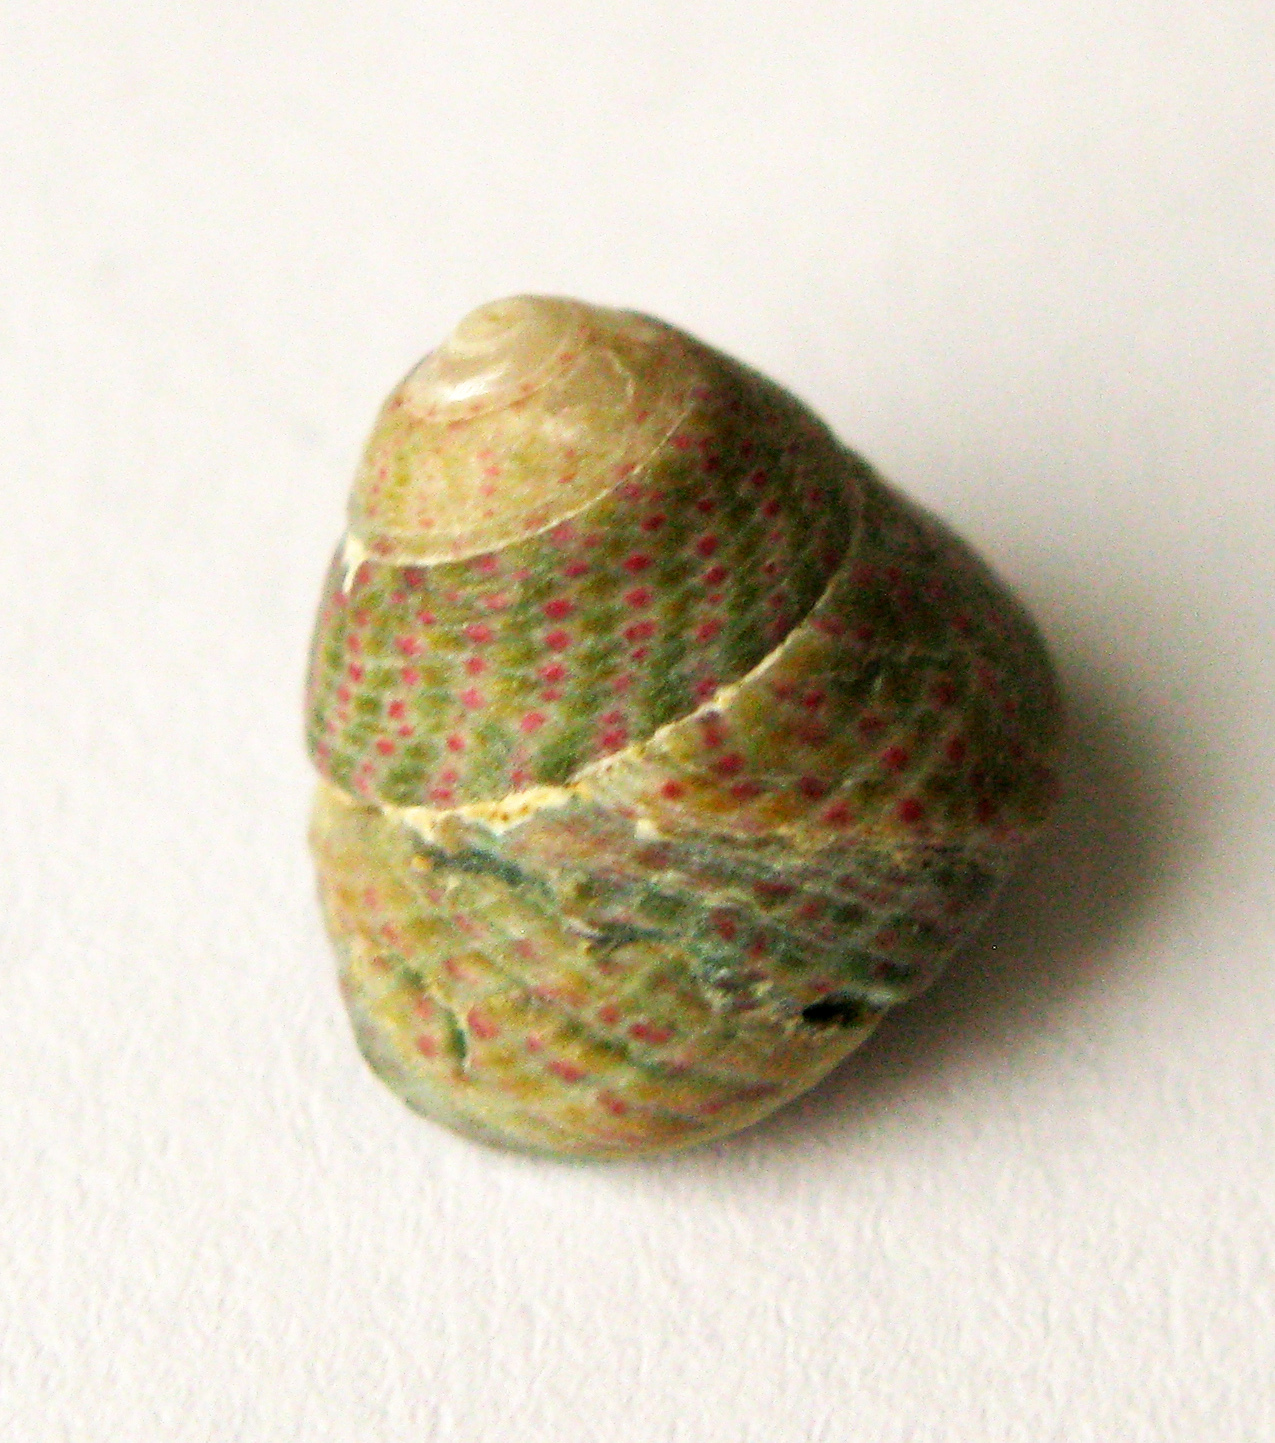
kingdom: Animalia
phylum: Mollusca
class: Gastropoda
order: Trochida
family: Trochidae
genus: Steromphala
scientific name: Steromphala divaricata
